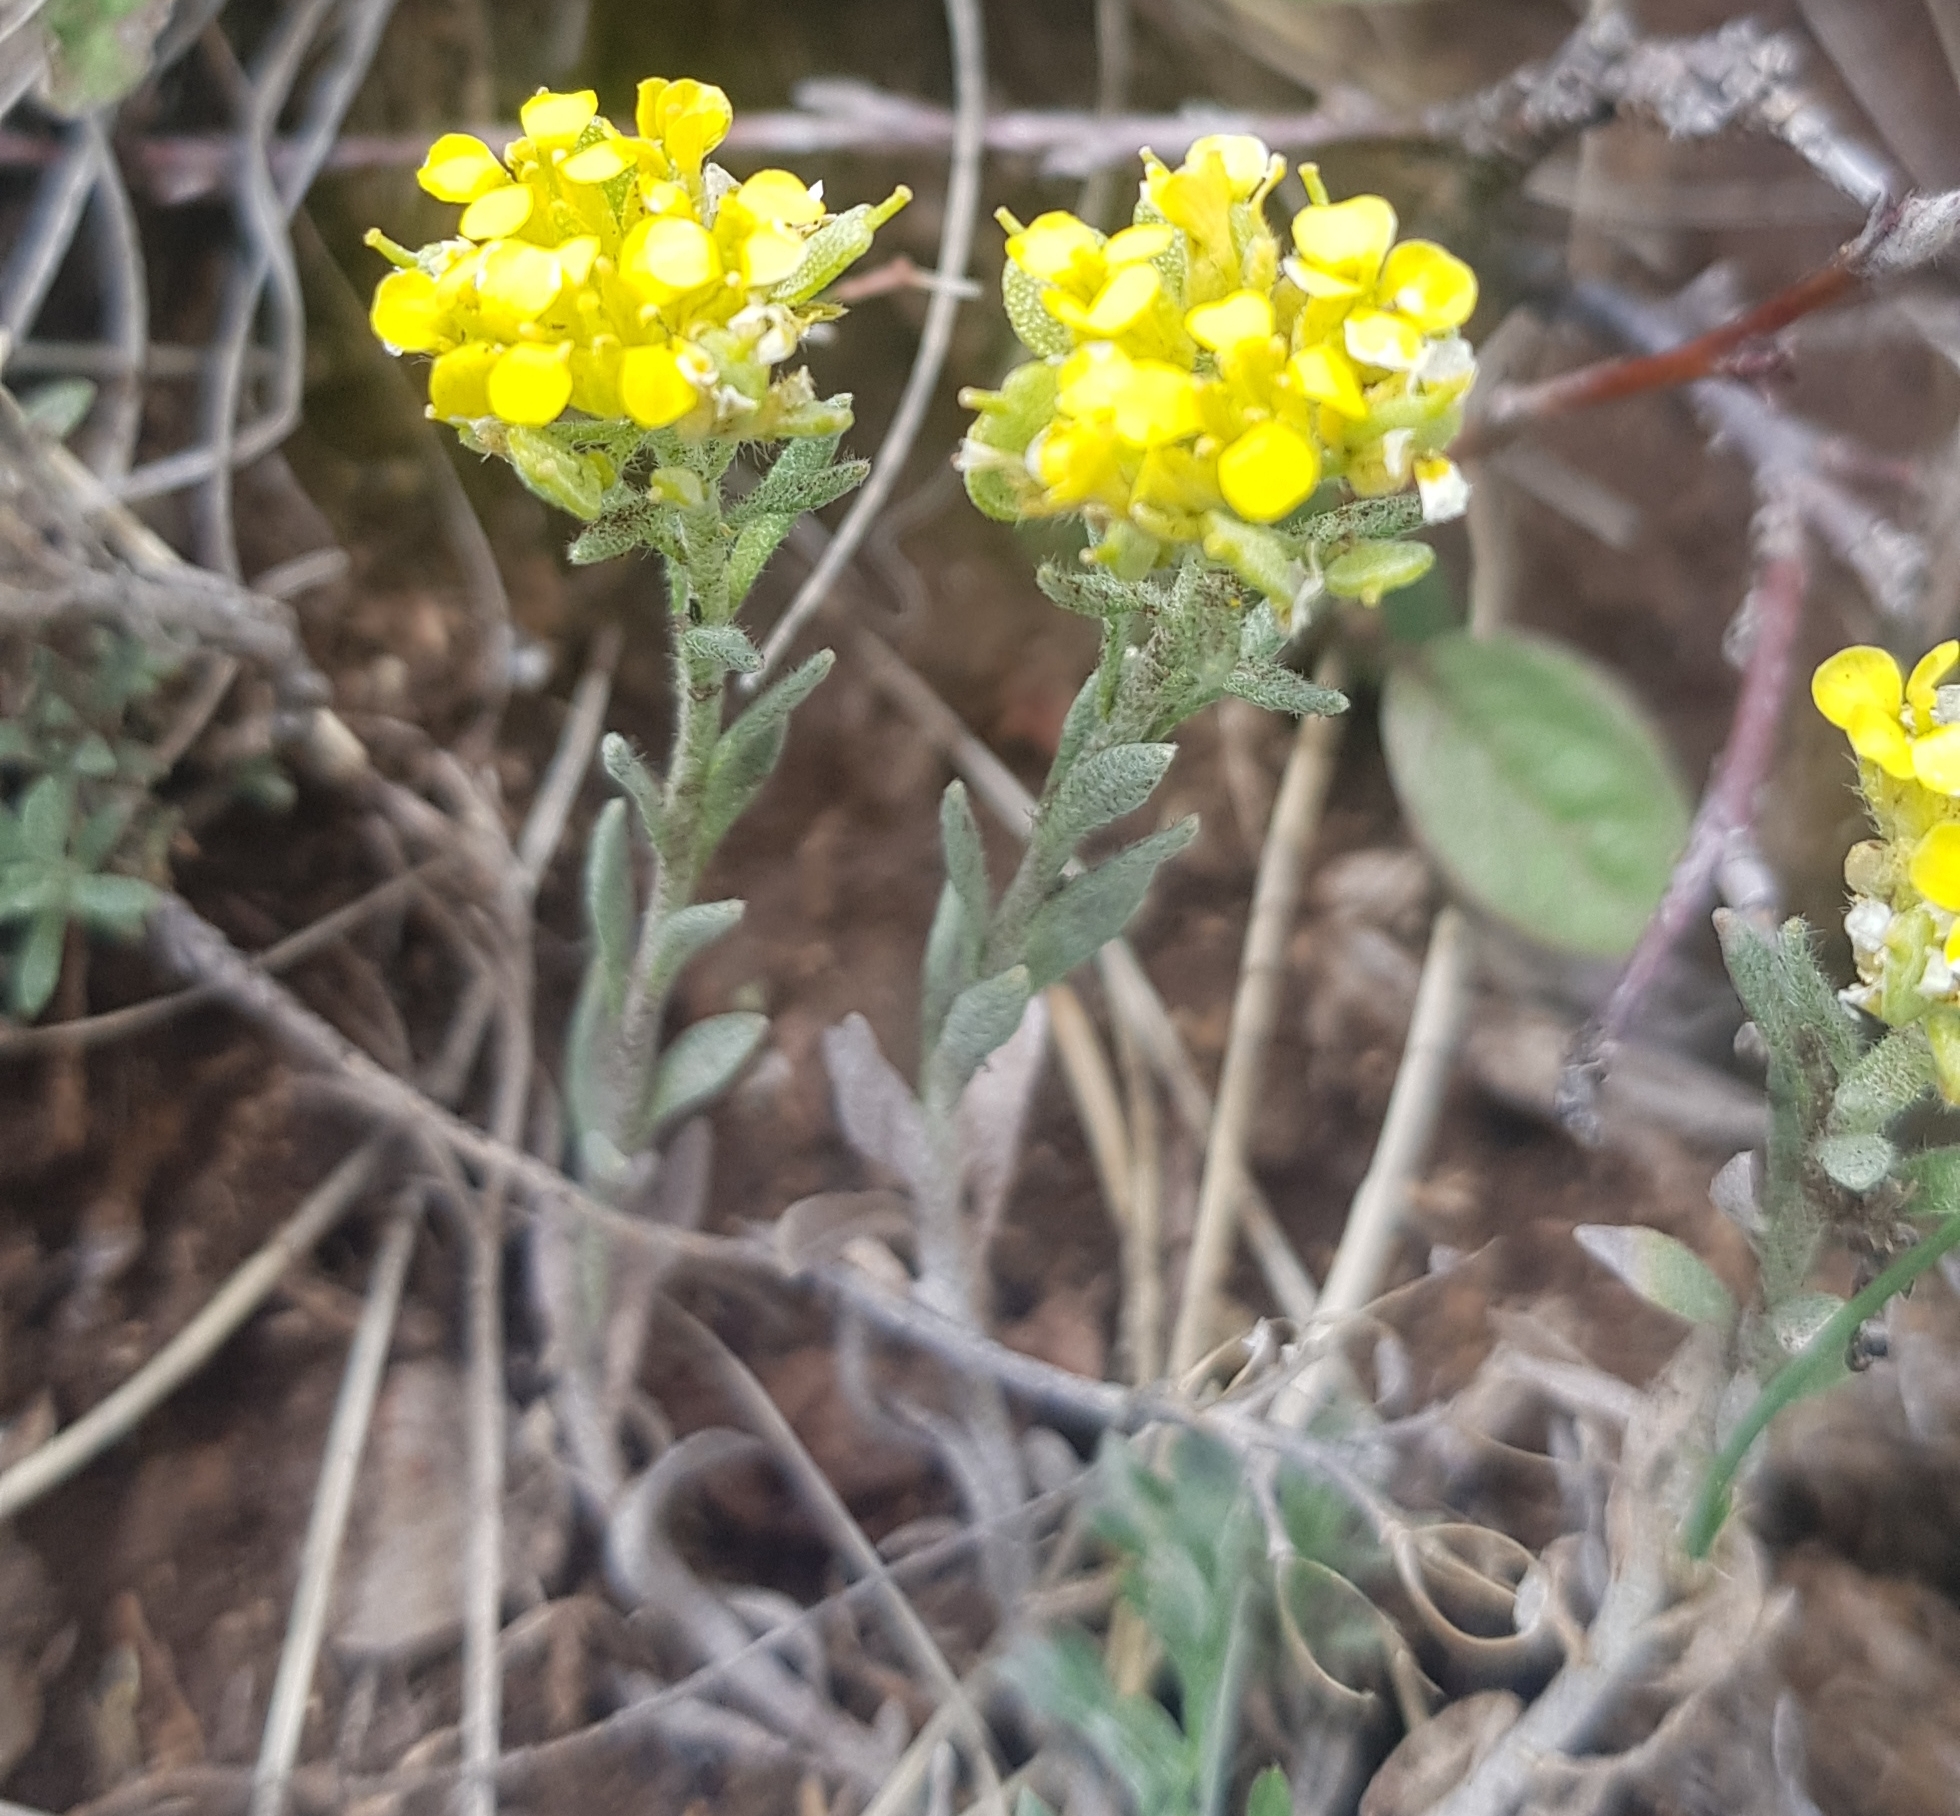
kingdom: Plantae
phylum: Tracheophyta
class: Magnoliopsida
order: Brassicales
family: Brassicaceae
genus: Alyssum
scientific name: Alyssum lenense
